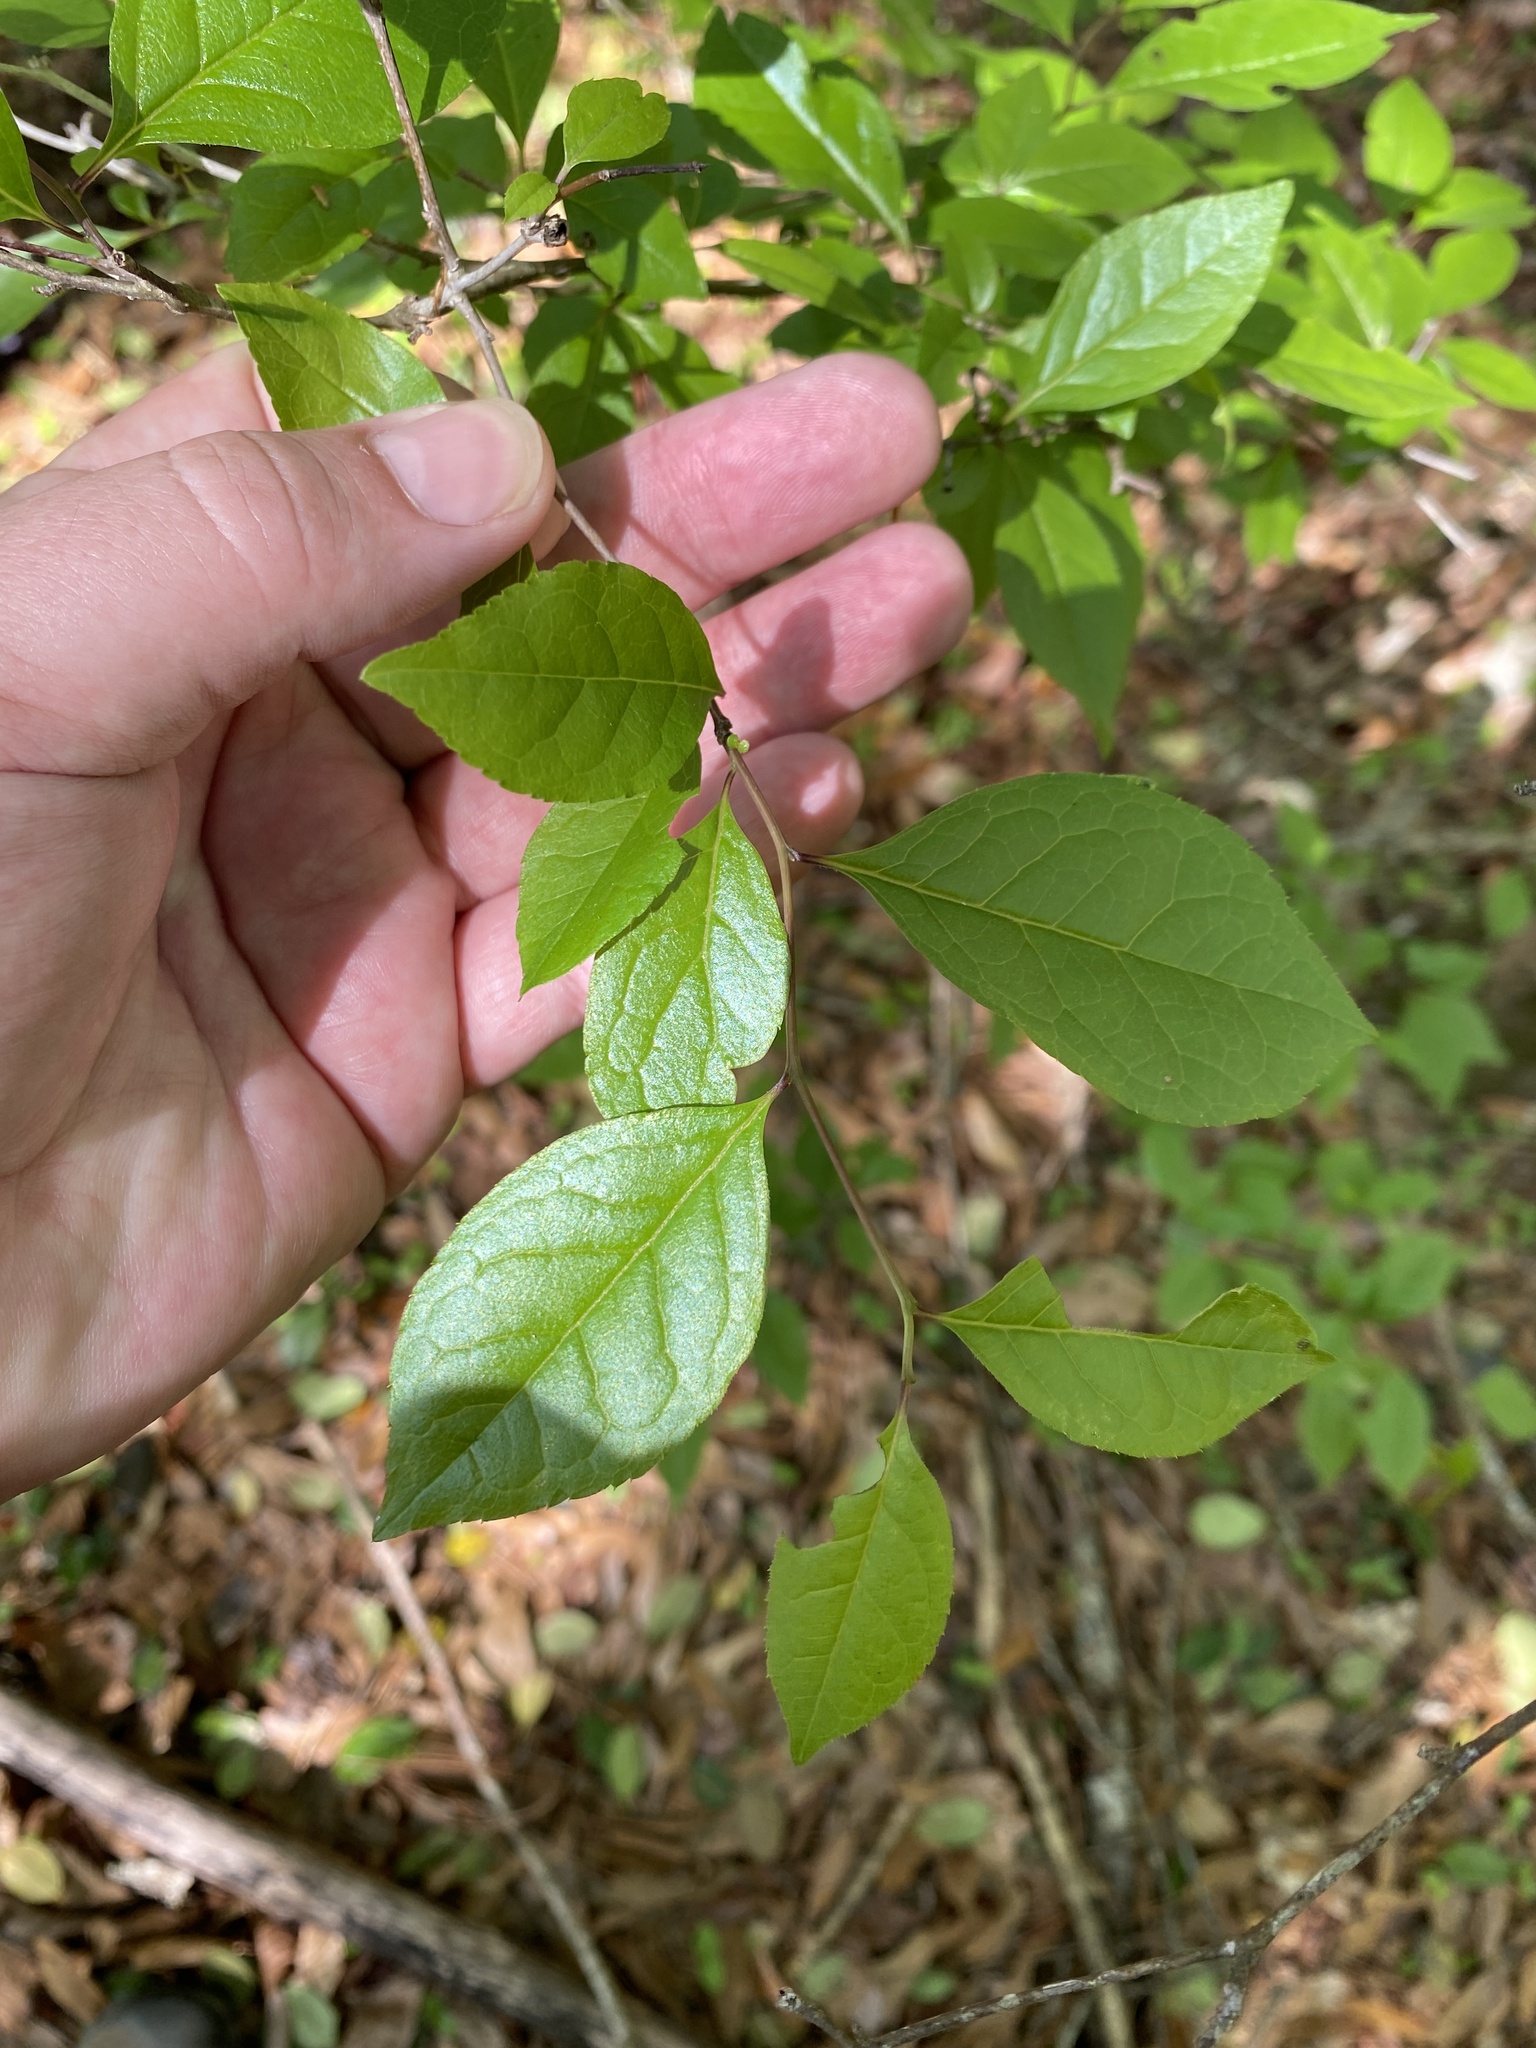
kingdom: Plantae
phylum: Tracheophyta
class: Magnoliopsida
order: Aquifoliales
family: Aquifoliaceae
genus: Ilex
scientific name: Ilex ambigua
